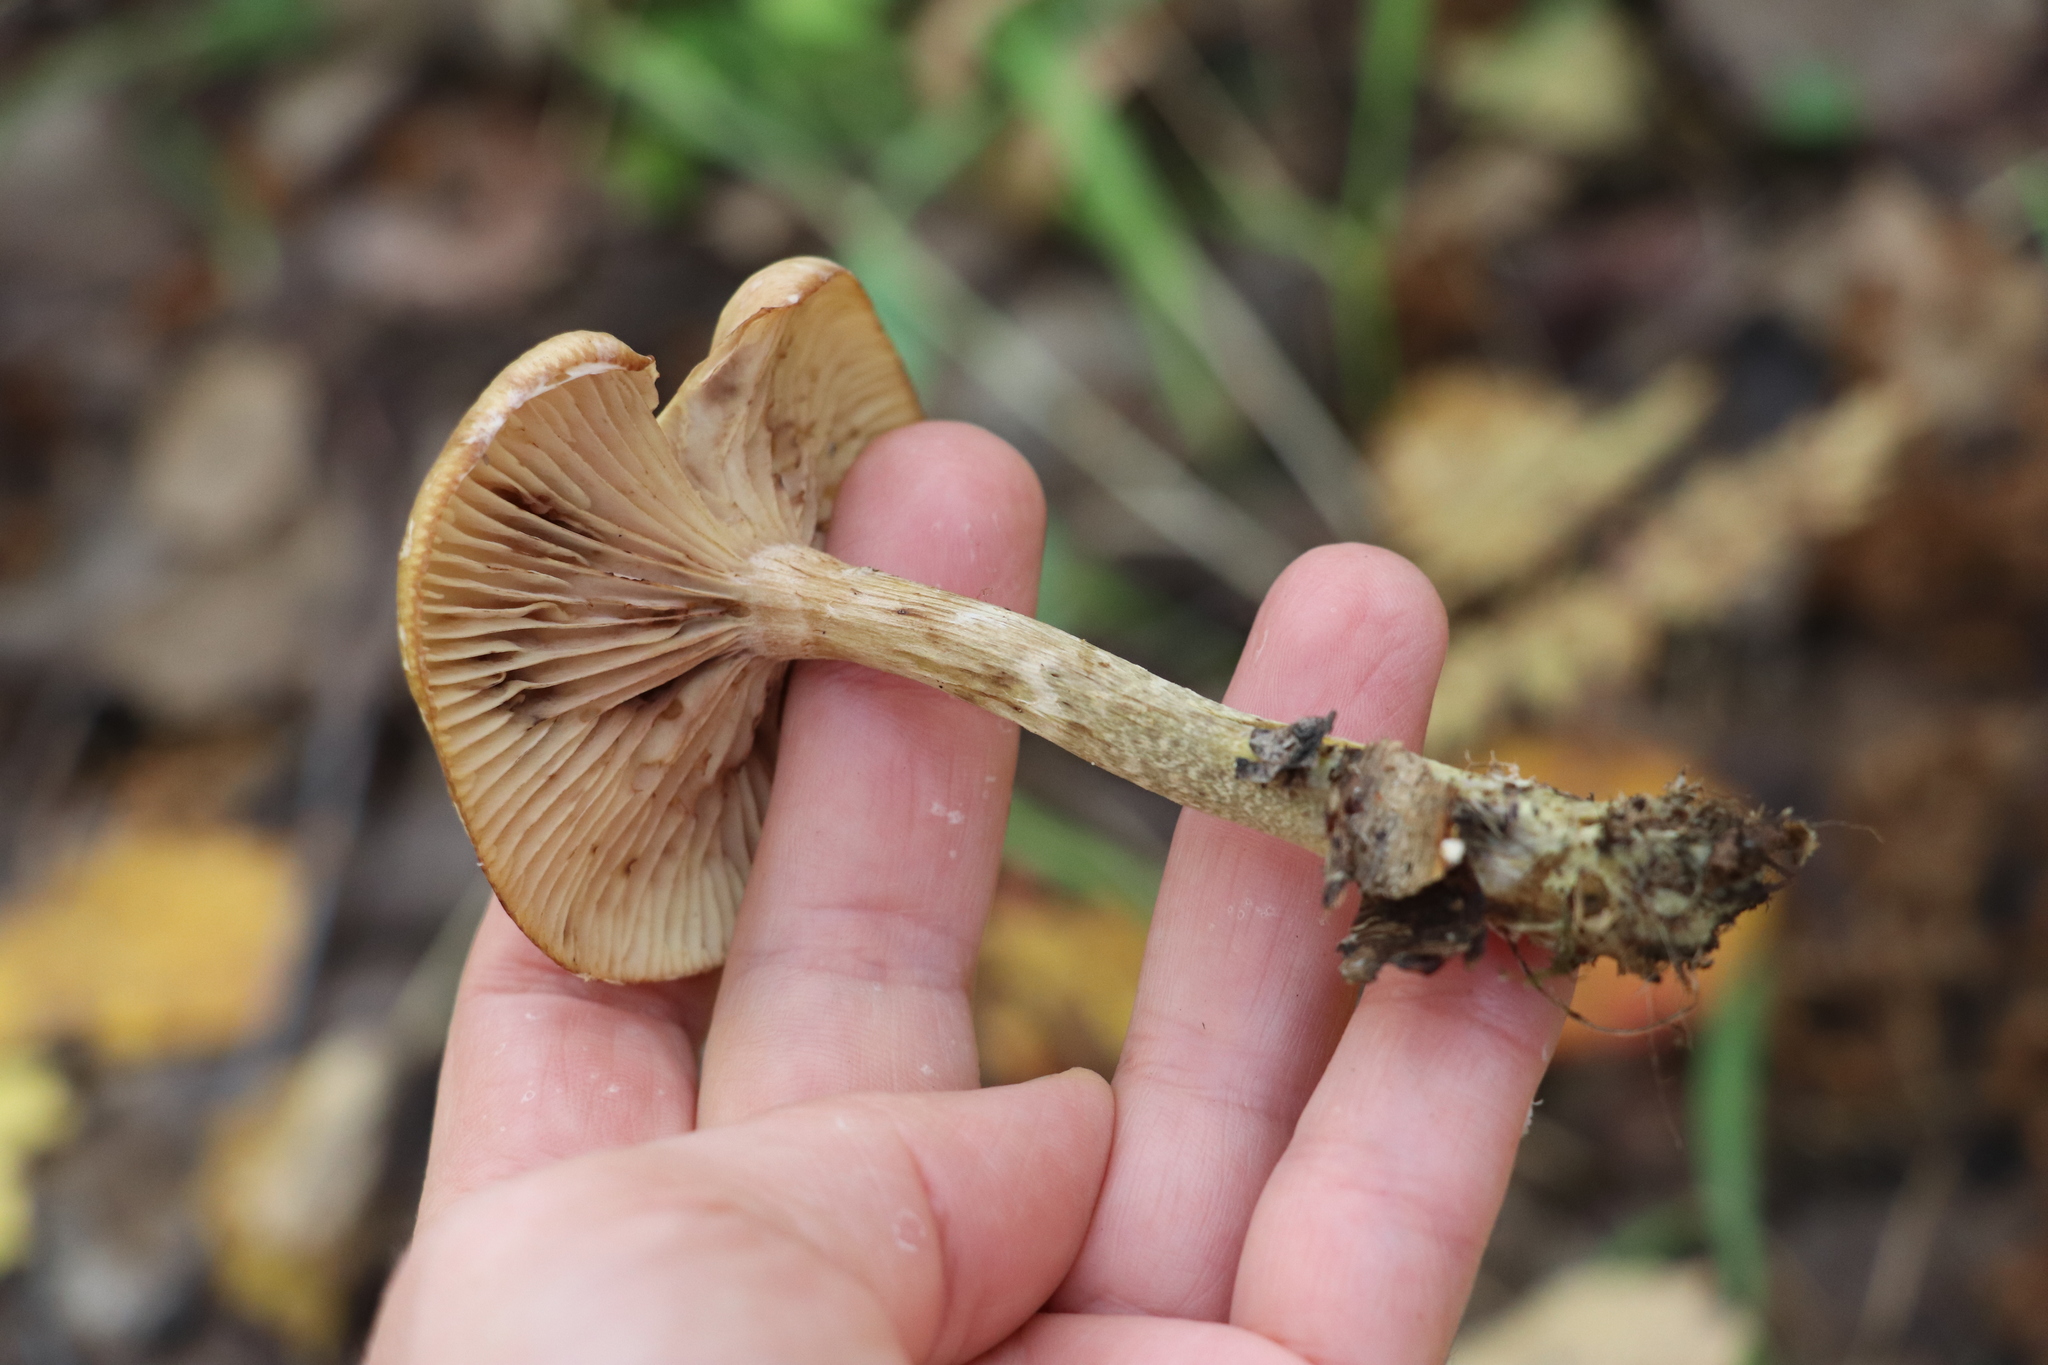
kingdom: Fungi
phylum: Basidiomycota
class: Agaricomycetes
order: Agaricales
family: Physalacriaceae
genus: Armillaria
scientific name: Armillaria cepistipes
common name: Mullet honey fungus
